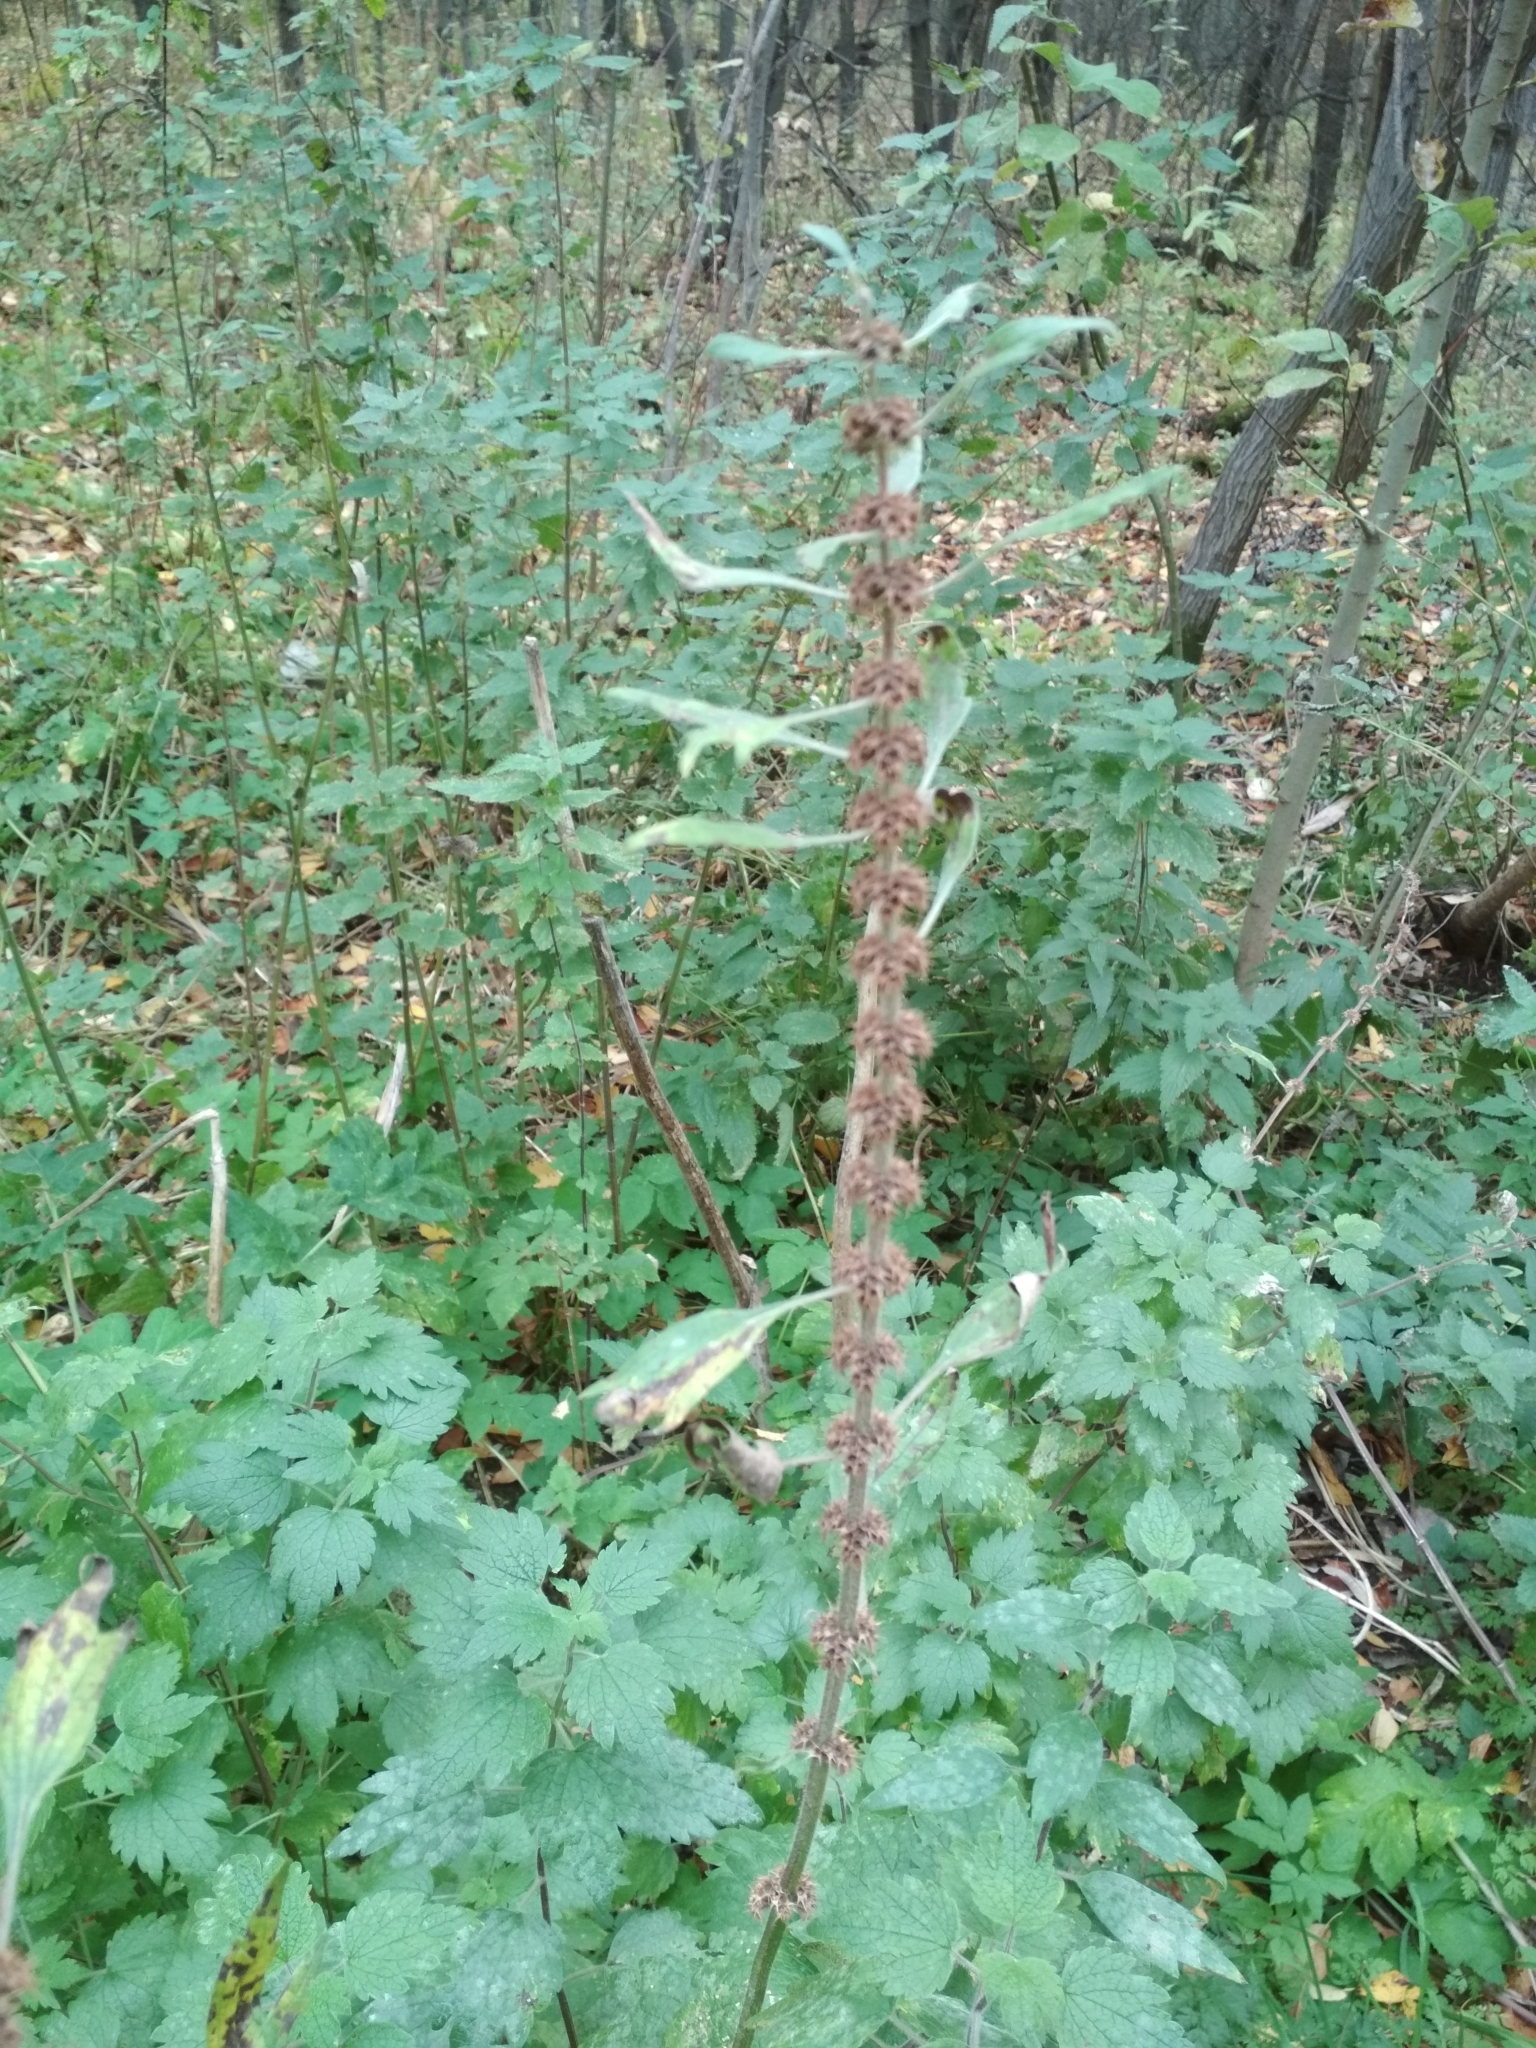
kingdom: Plantae
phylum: Tracheophyta
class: Magnoliopsida
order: Lamiales
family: Lamiaceae
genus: Leonurus
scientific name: Leonurus quinquelobatus
